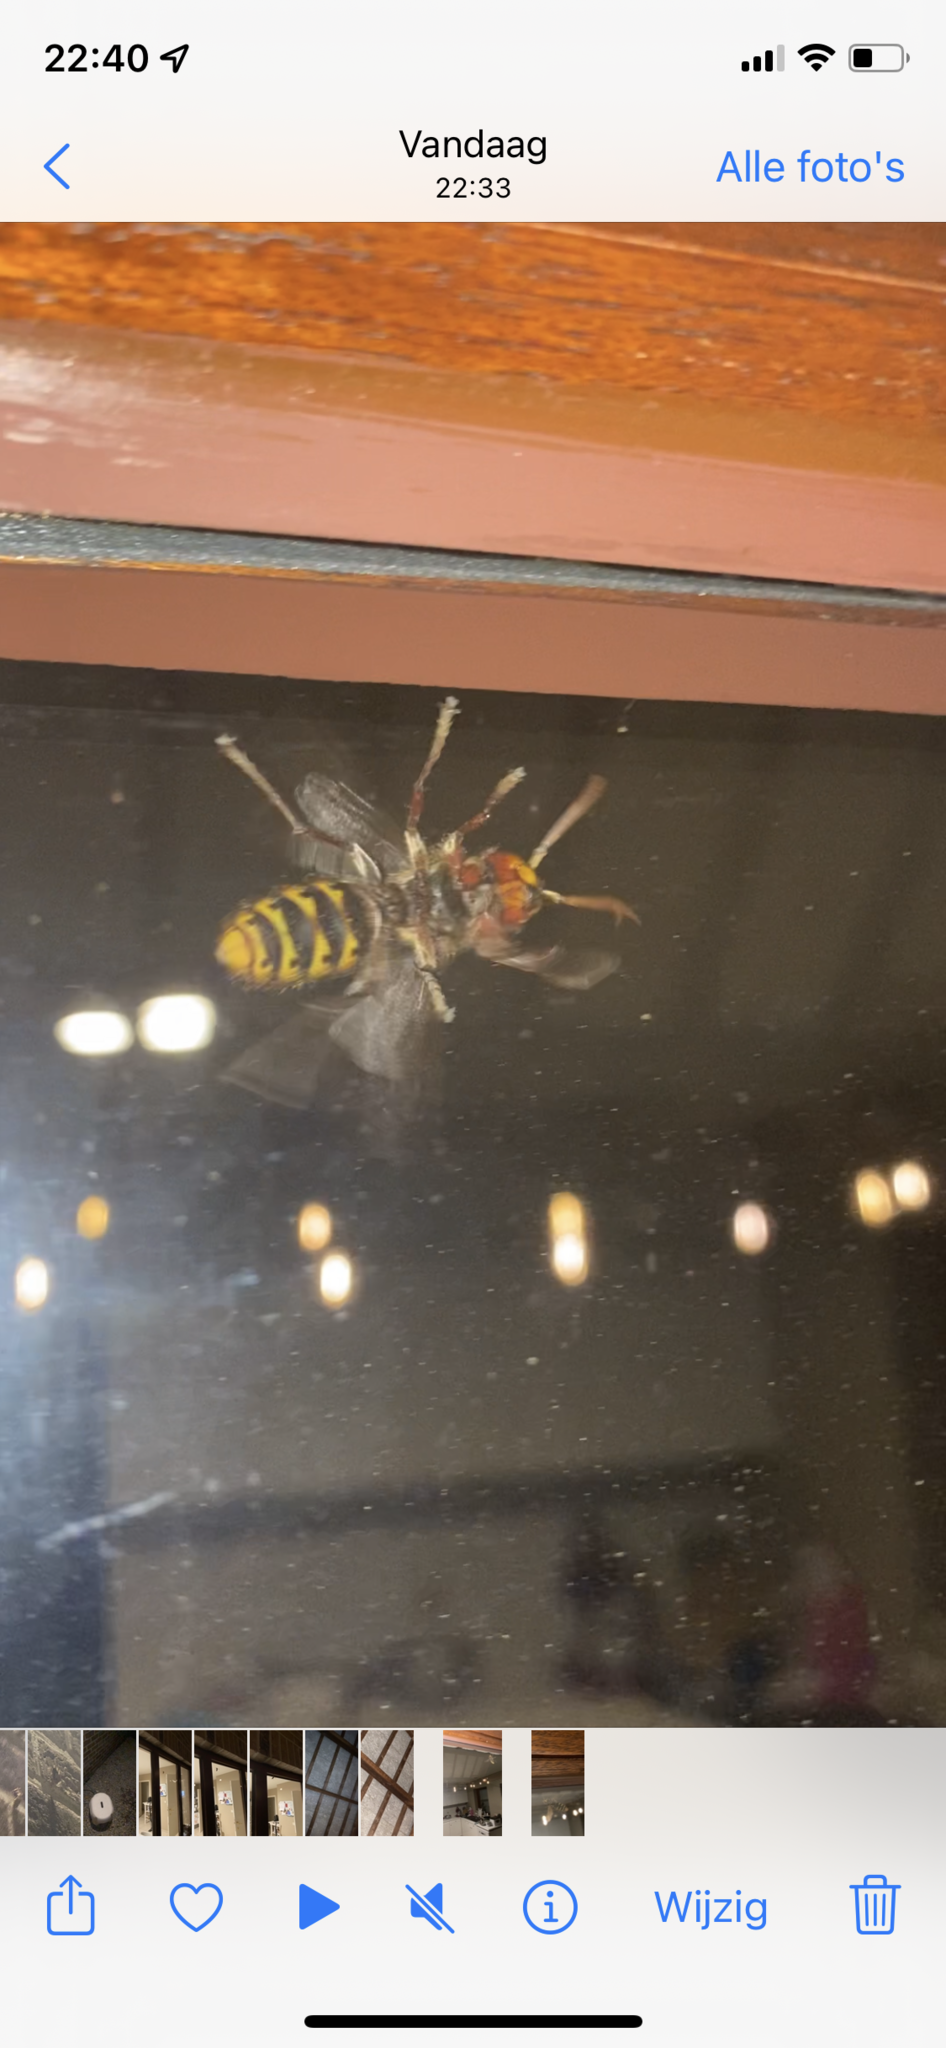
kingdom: Animalia
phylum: Arthropoda
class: Insecta
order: Hymenoptera
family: Vespidae
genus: Vespa
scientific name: Vespa crabro
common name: Hornet
